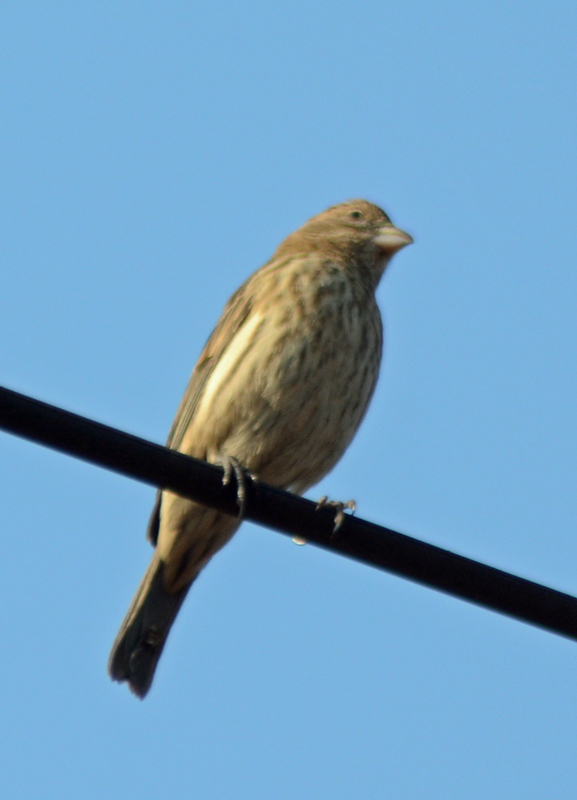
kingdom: Animalia
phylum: Chordata
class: Aves
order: Passeriformes
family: Fringillidae
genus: Haemorhous
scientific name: Haemorhous mexicanus
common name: House finch
